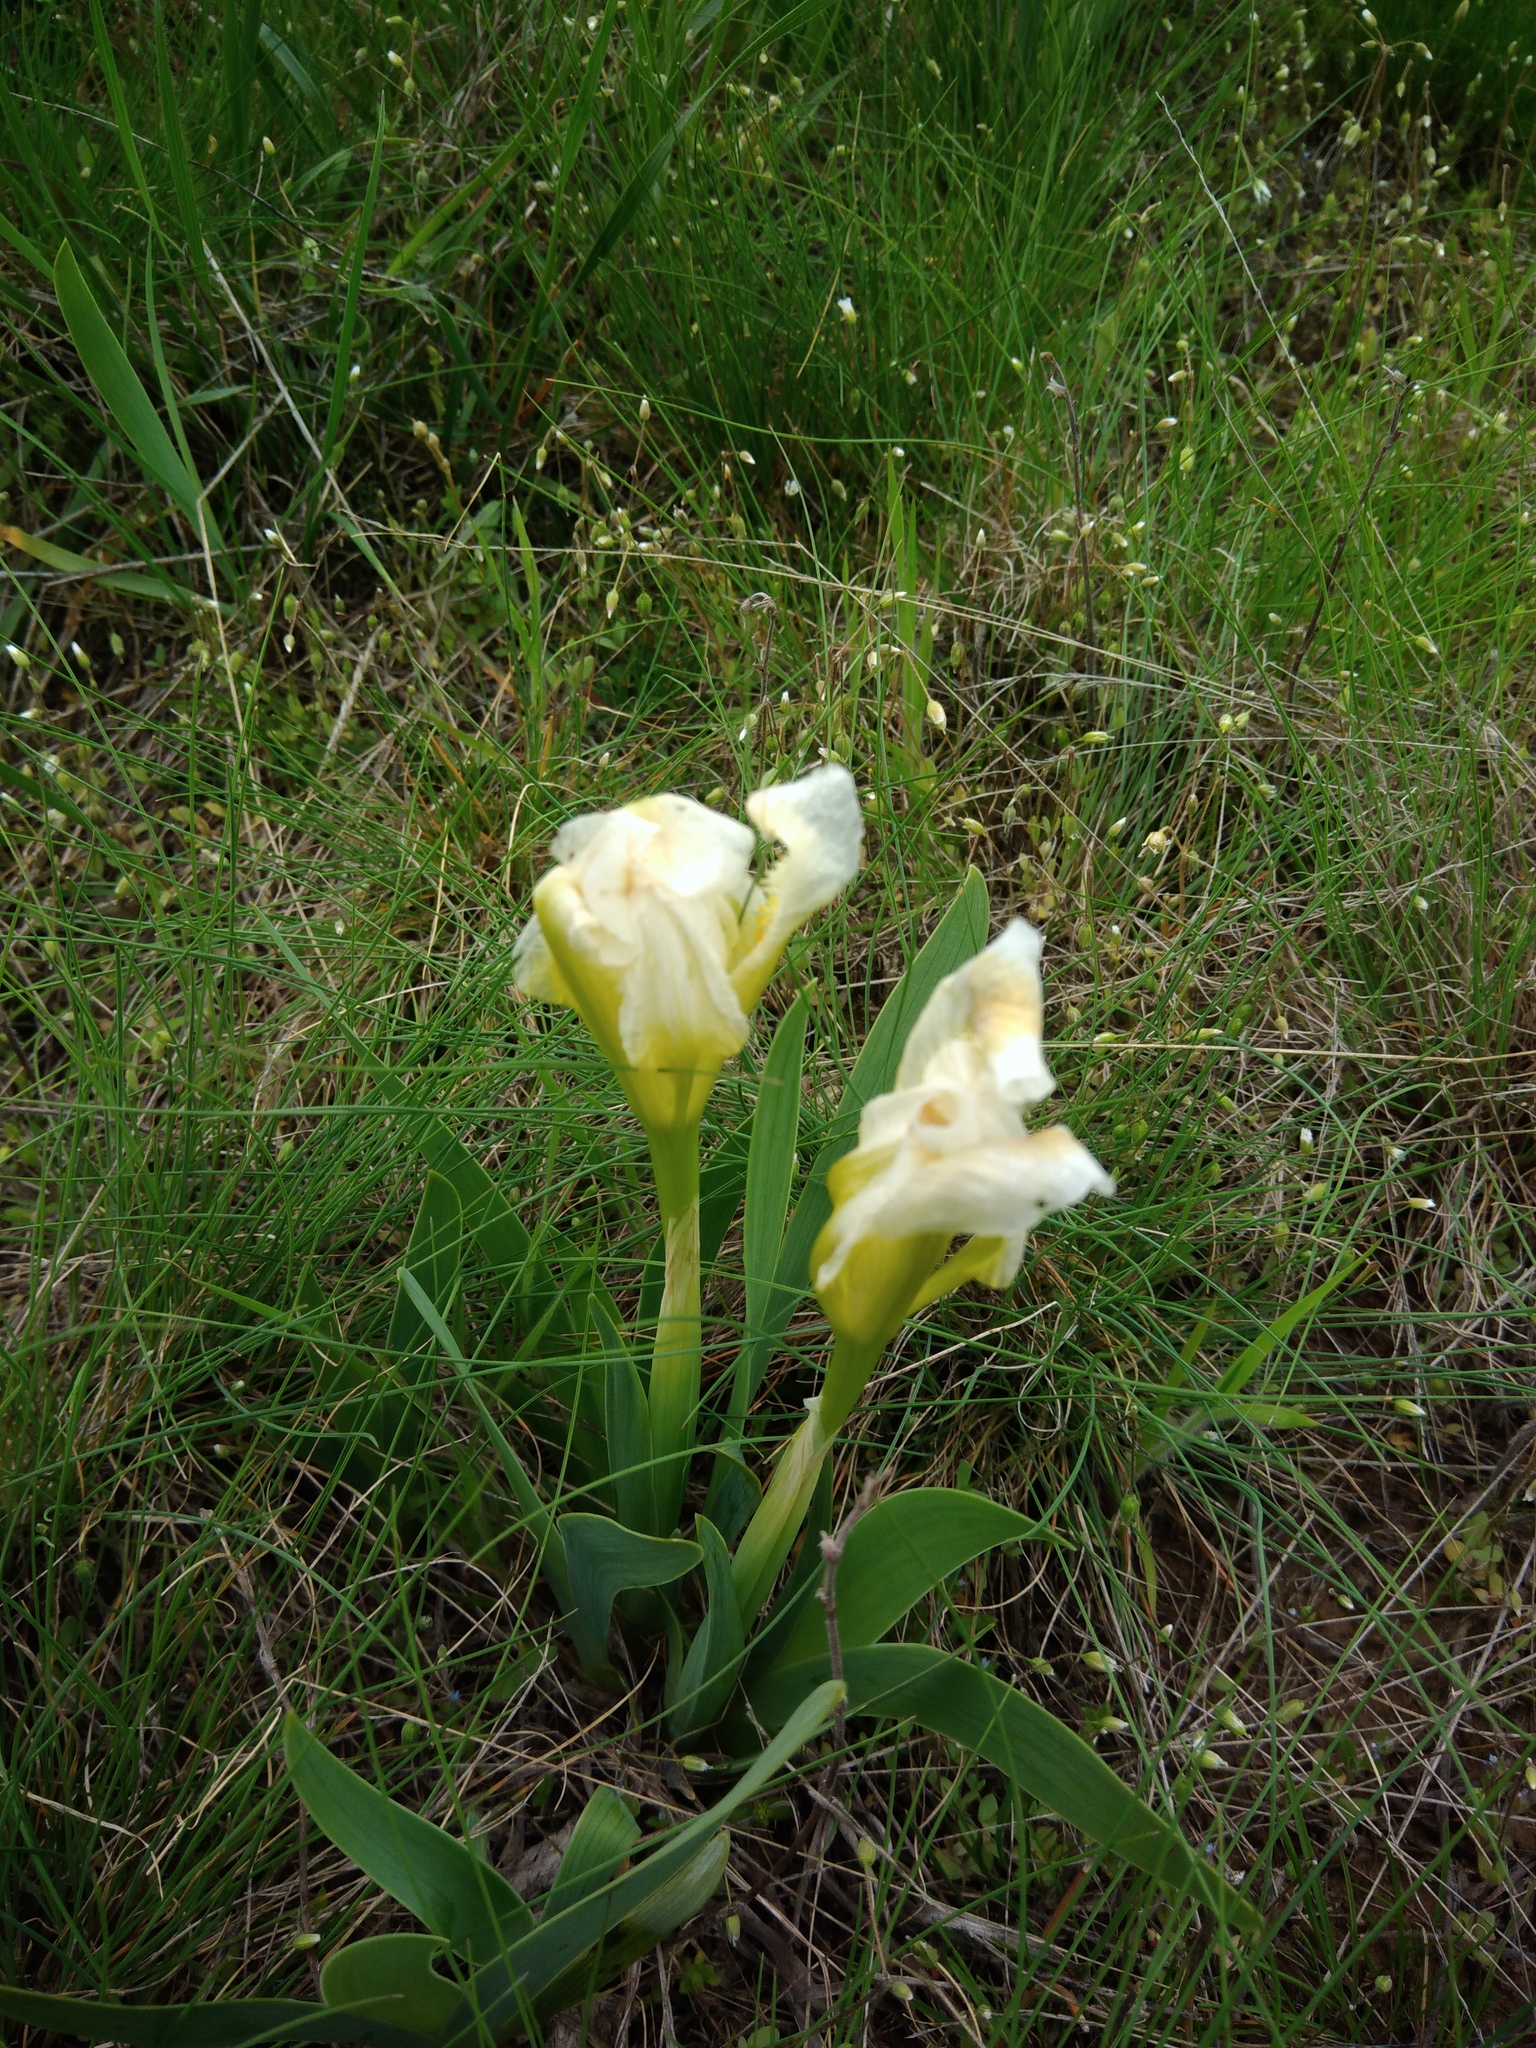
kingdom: Plantae
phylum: Tracheophyta
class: Liliopsida
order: Asparagales
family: Iridaceae
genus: Iris
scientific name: Iris pumila
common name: Dwarf iris
